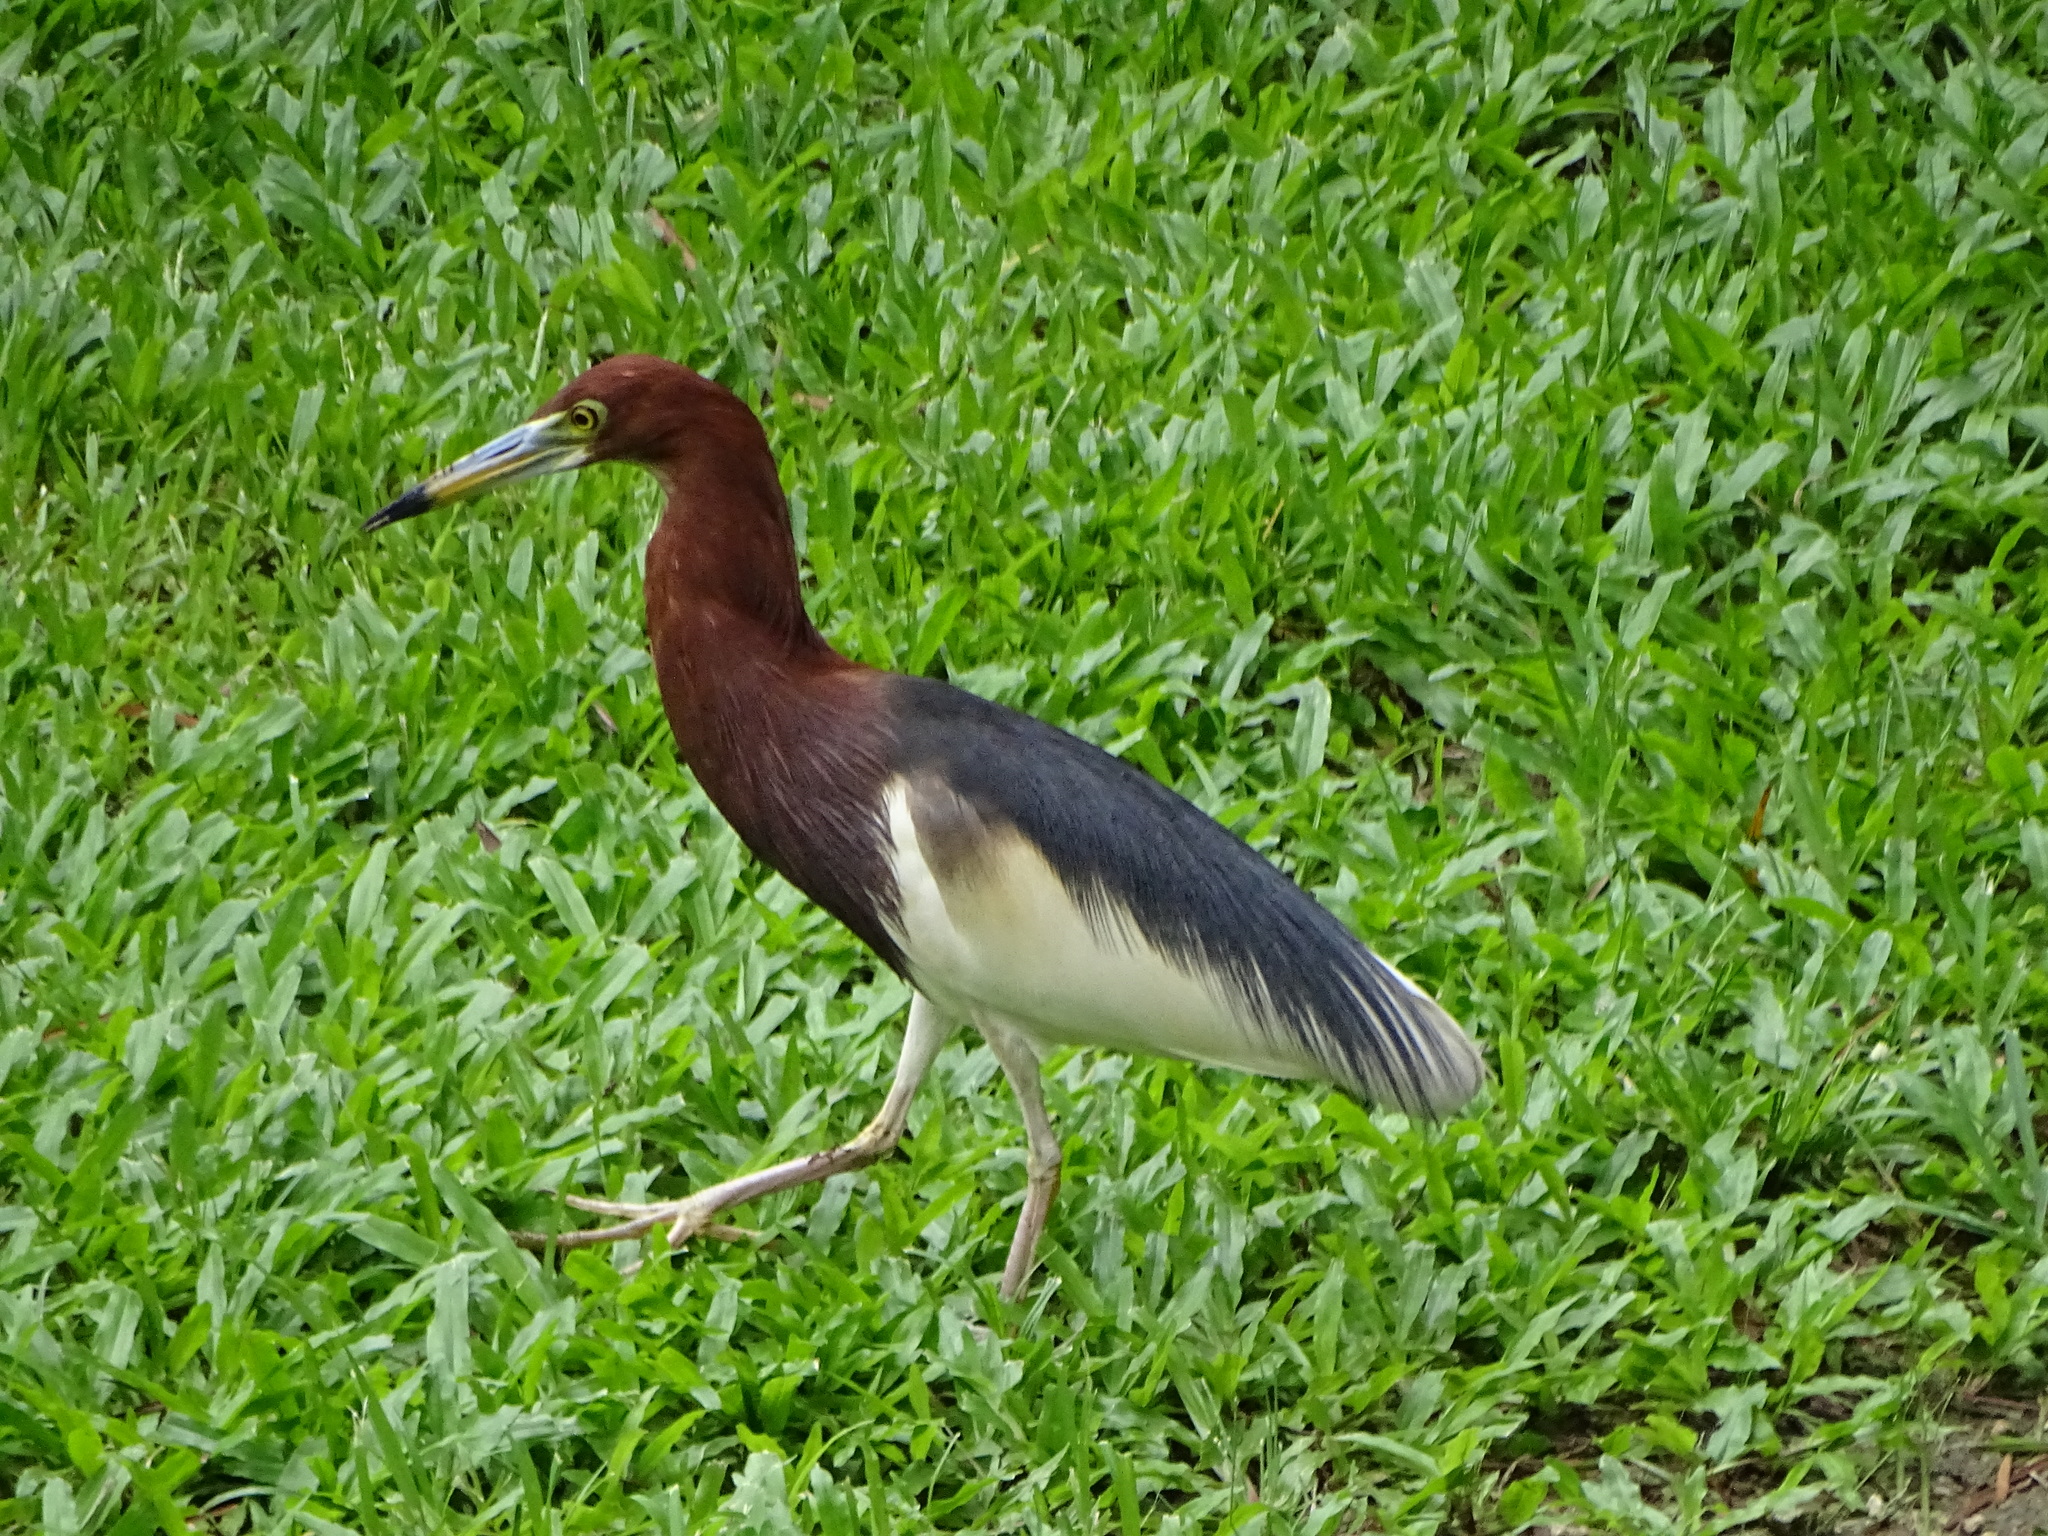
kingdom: Animalia
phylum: Chordata
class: Aves
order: Pelecaniformes
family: Ardeidae
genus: Ardeola
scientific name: Ardeola bacchus
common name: Chinese pond heron
